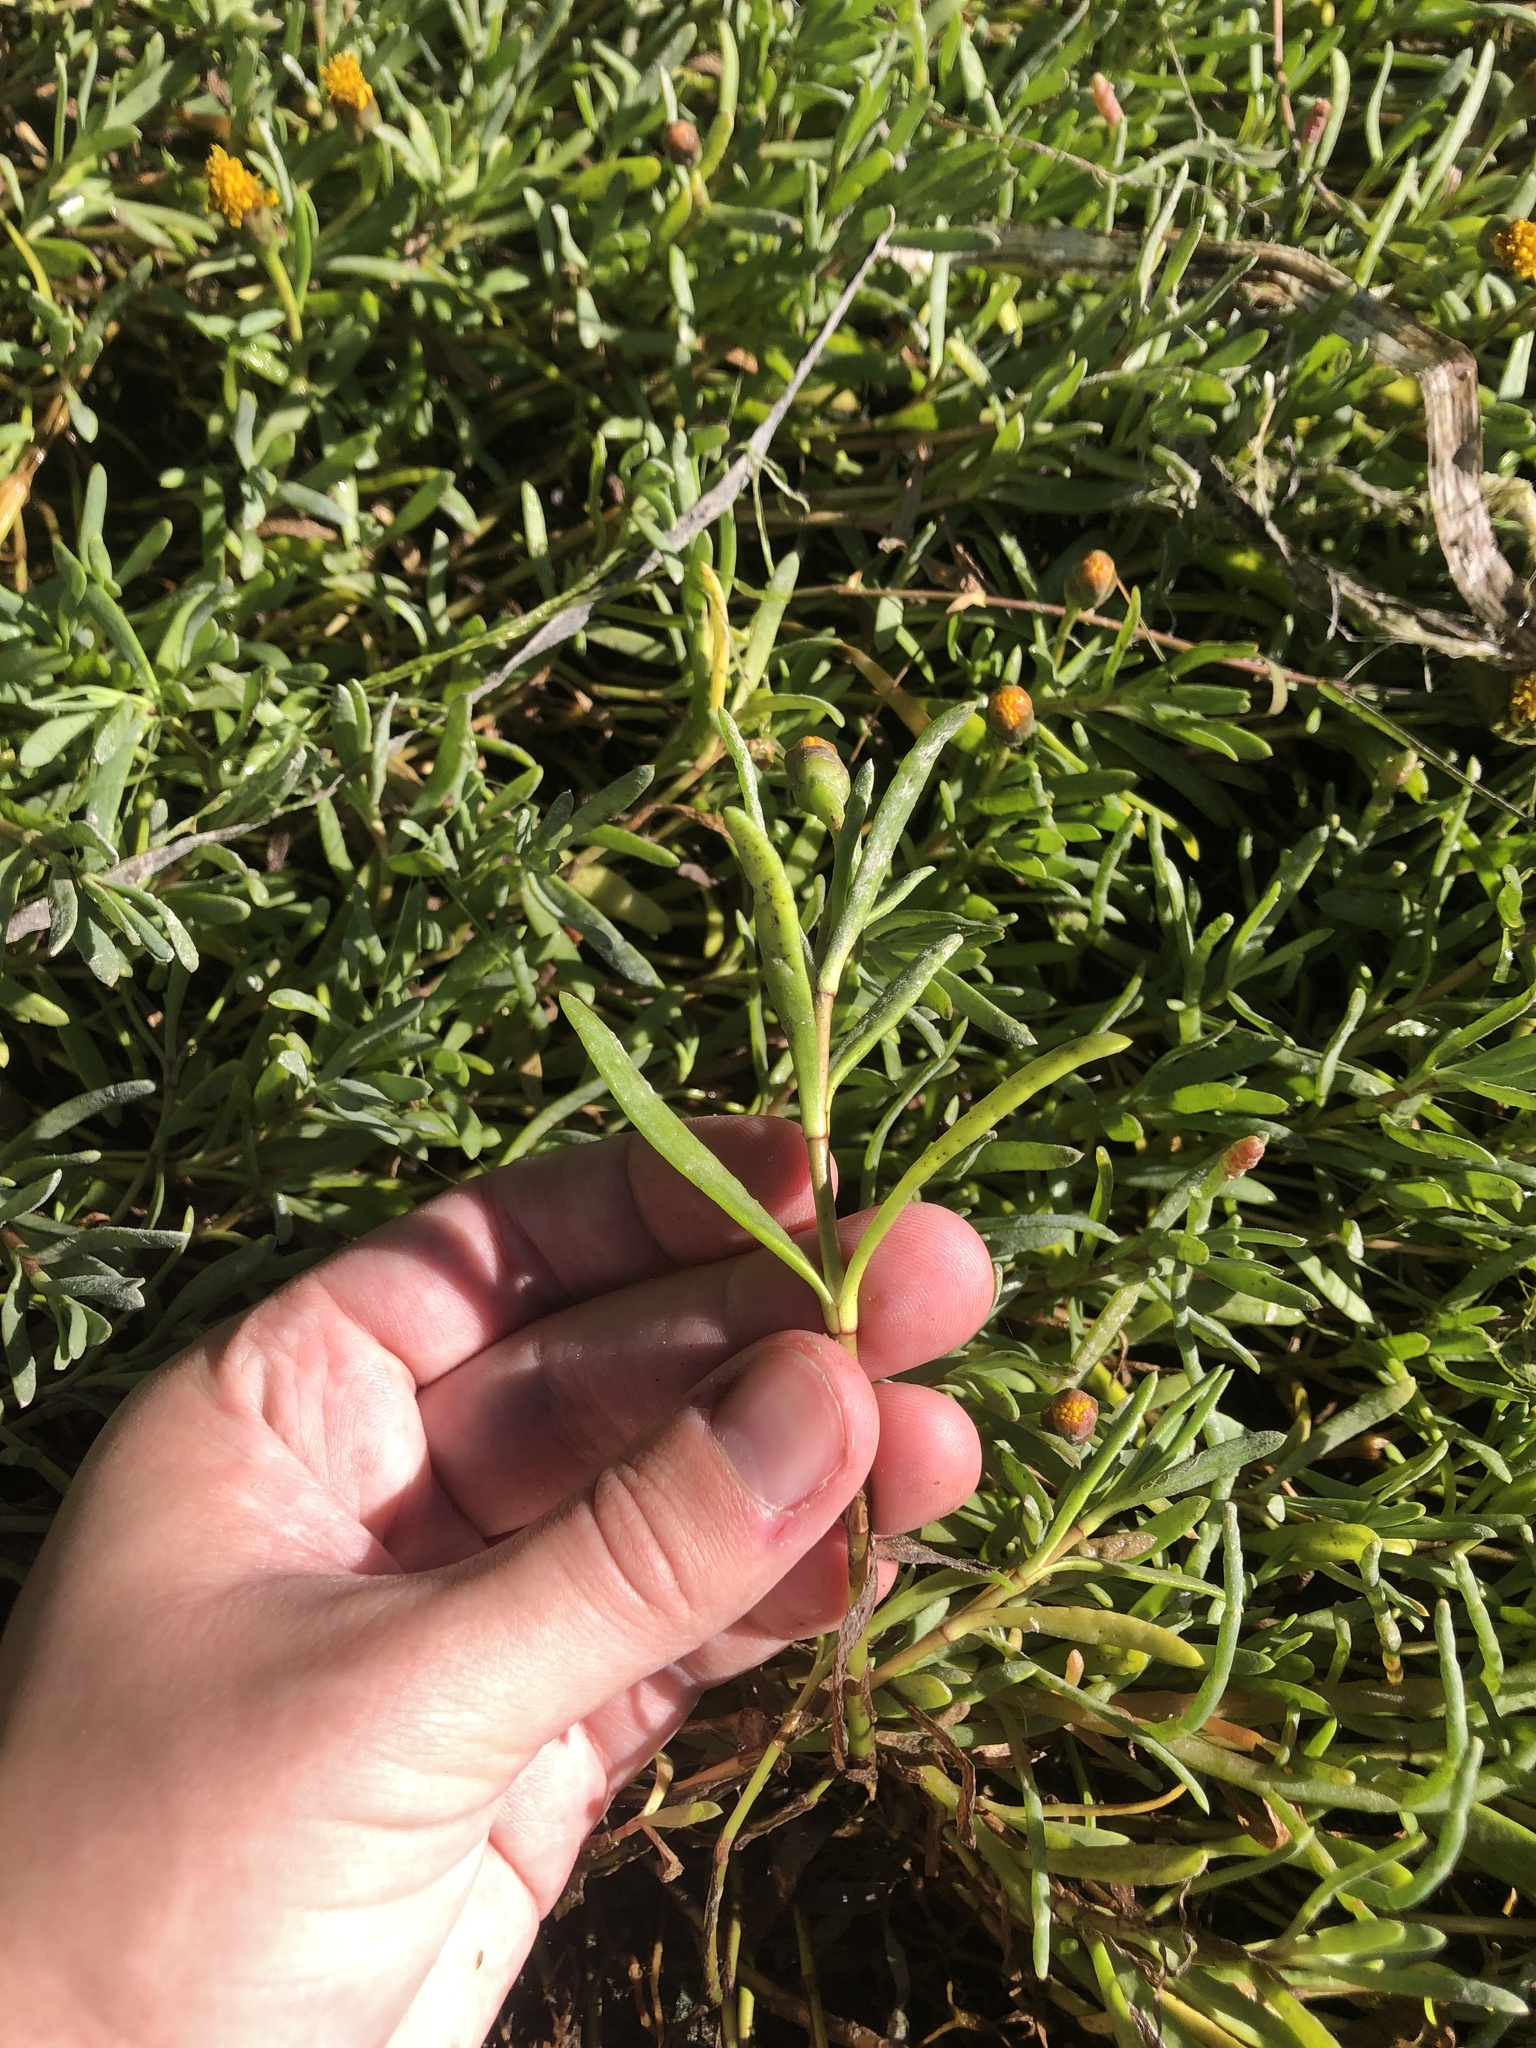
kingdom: Plantae
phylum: Tracheophyta
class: Magnoliopsida
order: Asterales
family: Asteraceae
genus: Jaumea
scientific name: Jaumea carnosa
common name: Fleshy jaumea
